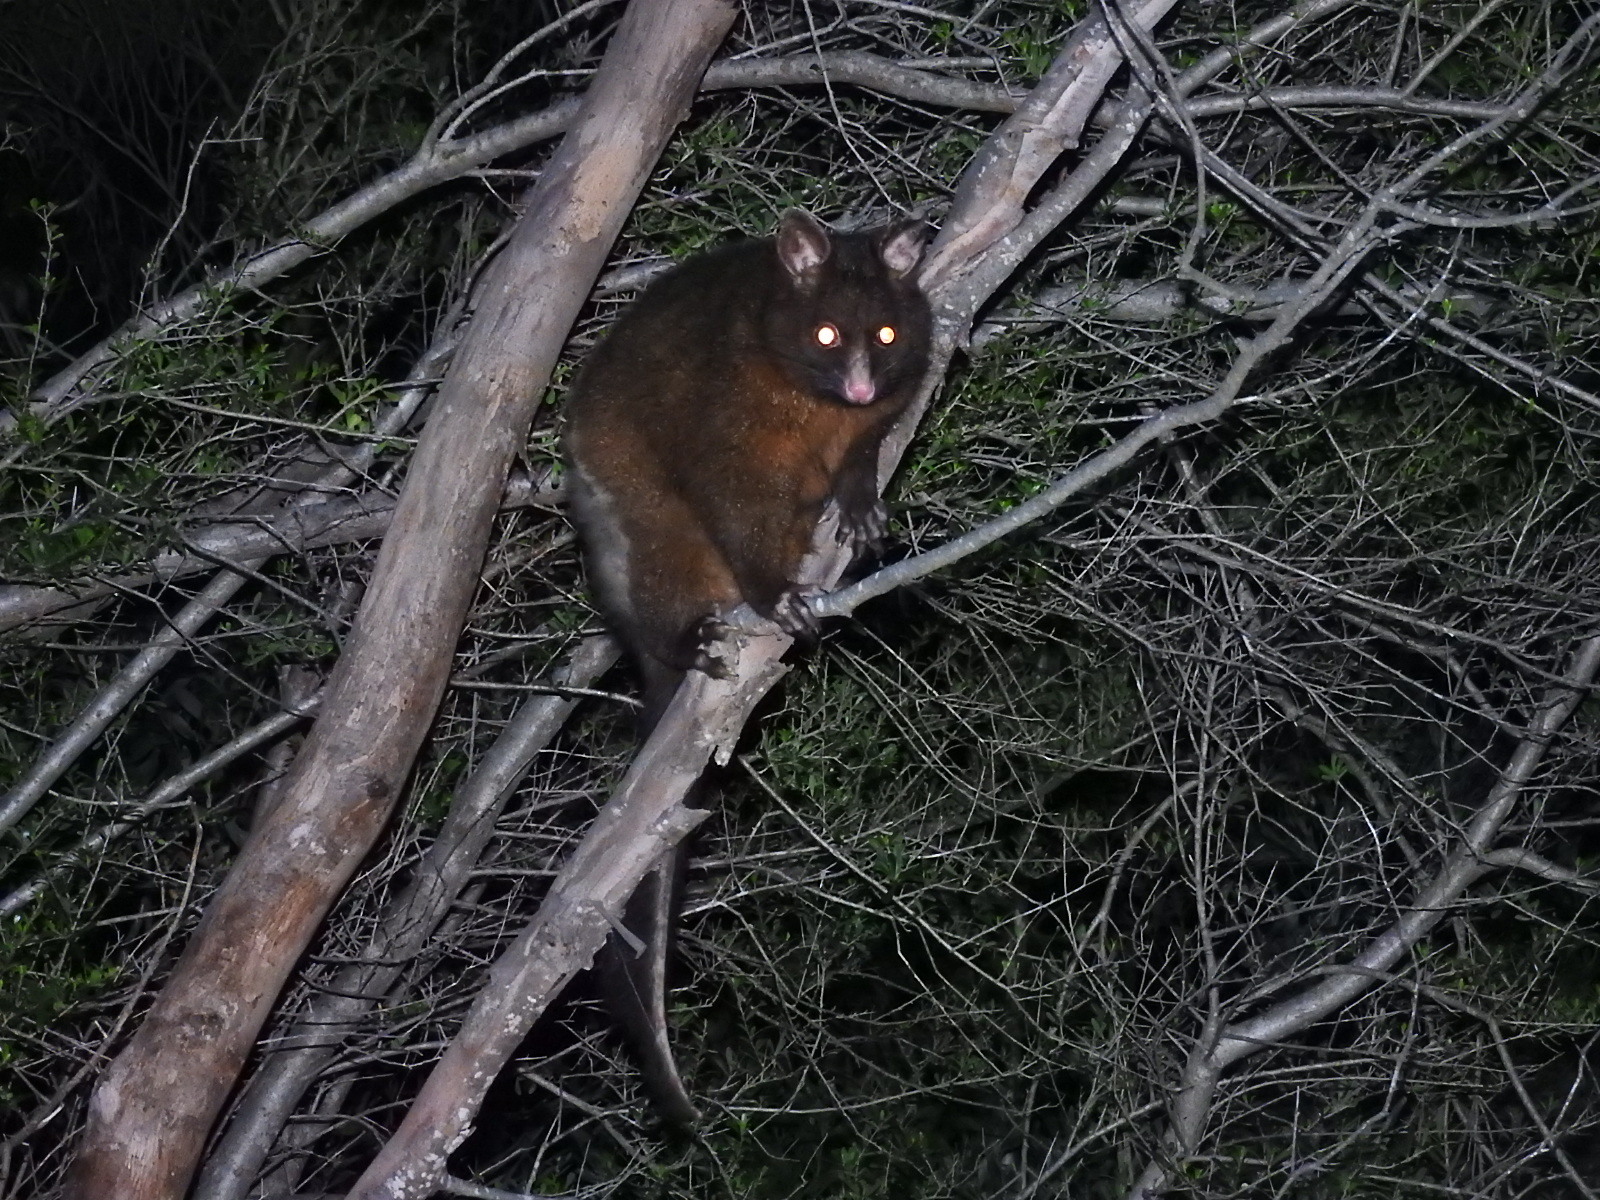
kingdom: Animalia
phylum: Chordata
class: Mammalia
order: Diprotodontia
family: Phalangeridae
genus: Trichosurus
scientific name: Trichosurus vulpecula
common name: Common brushtail
